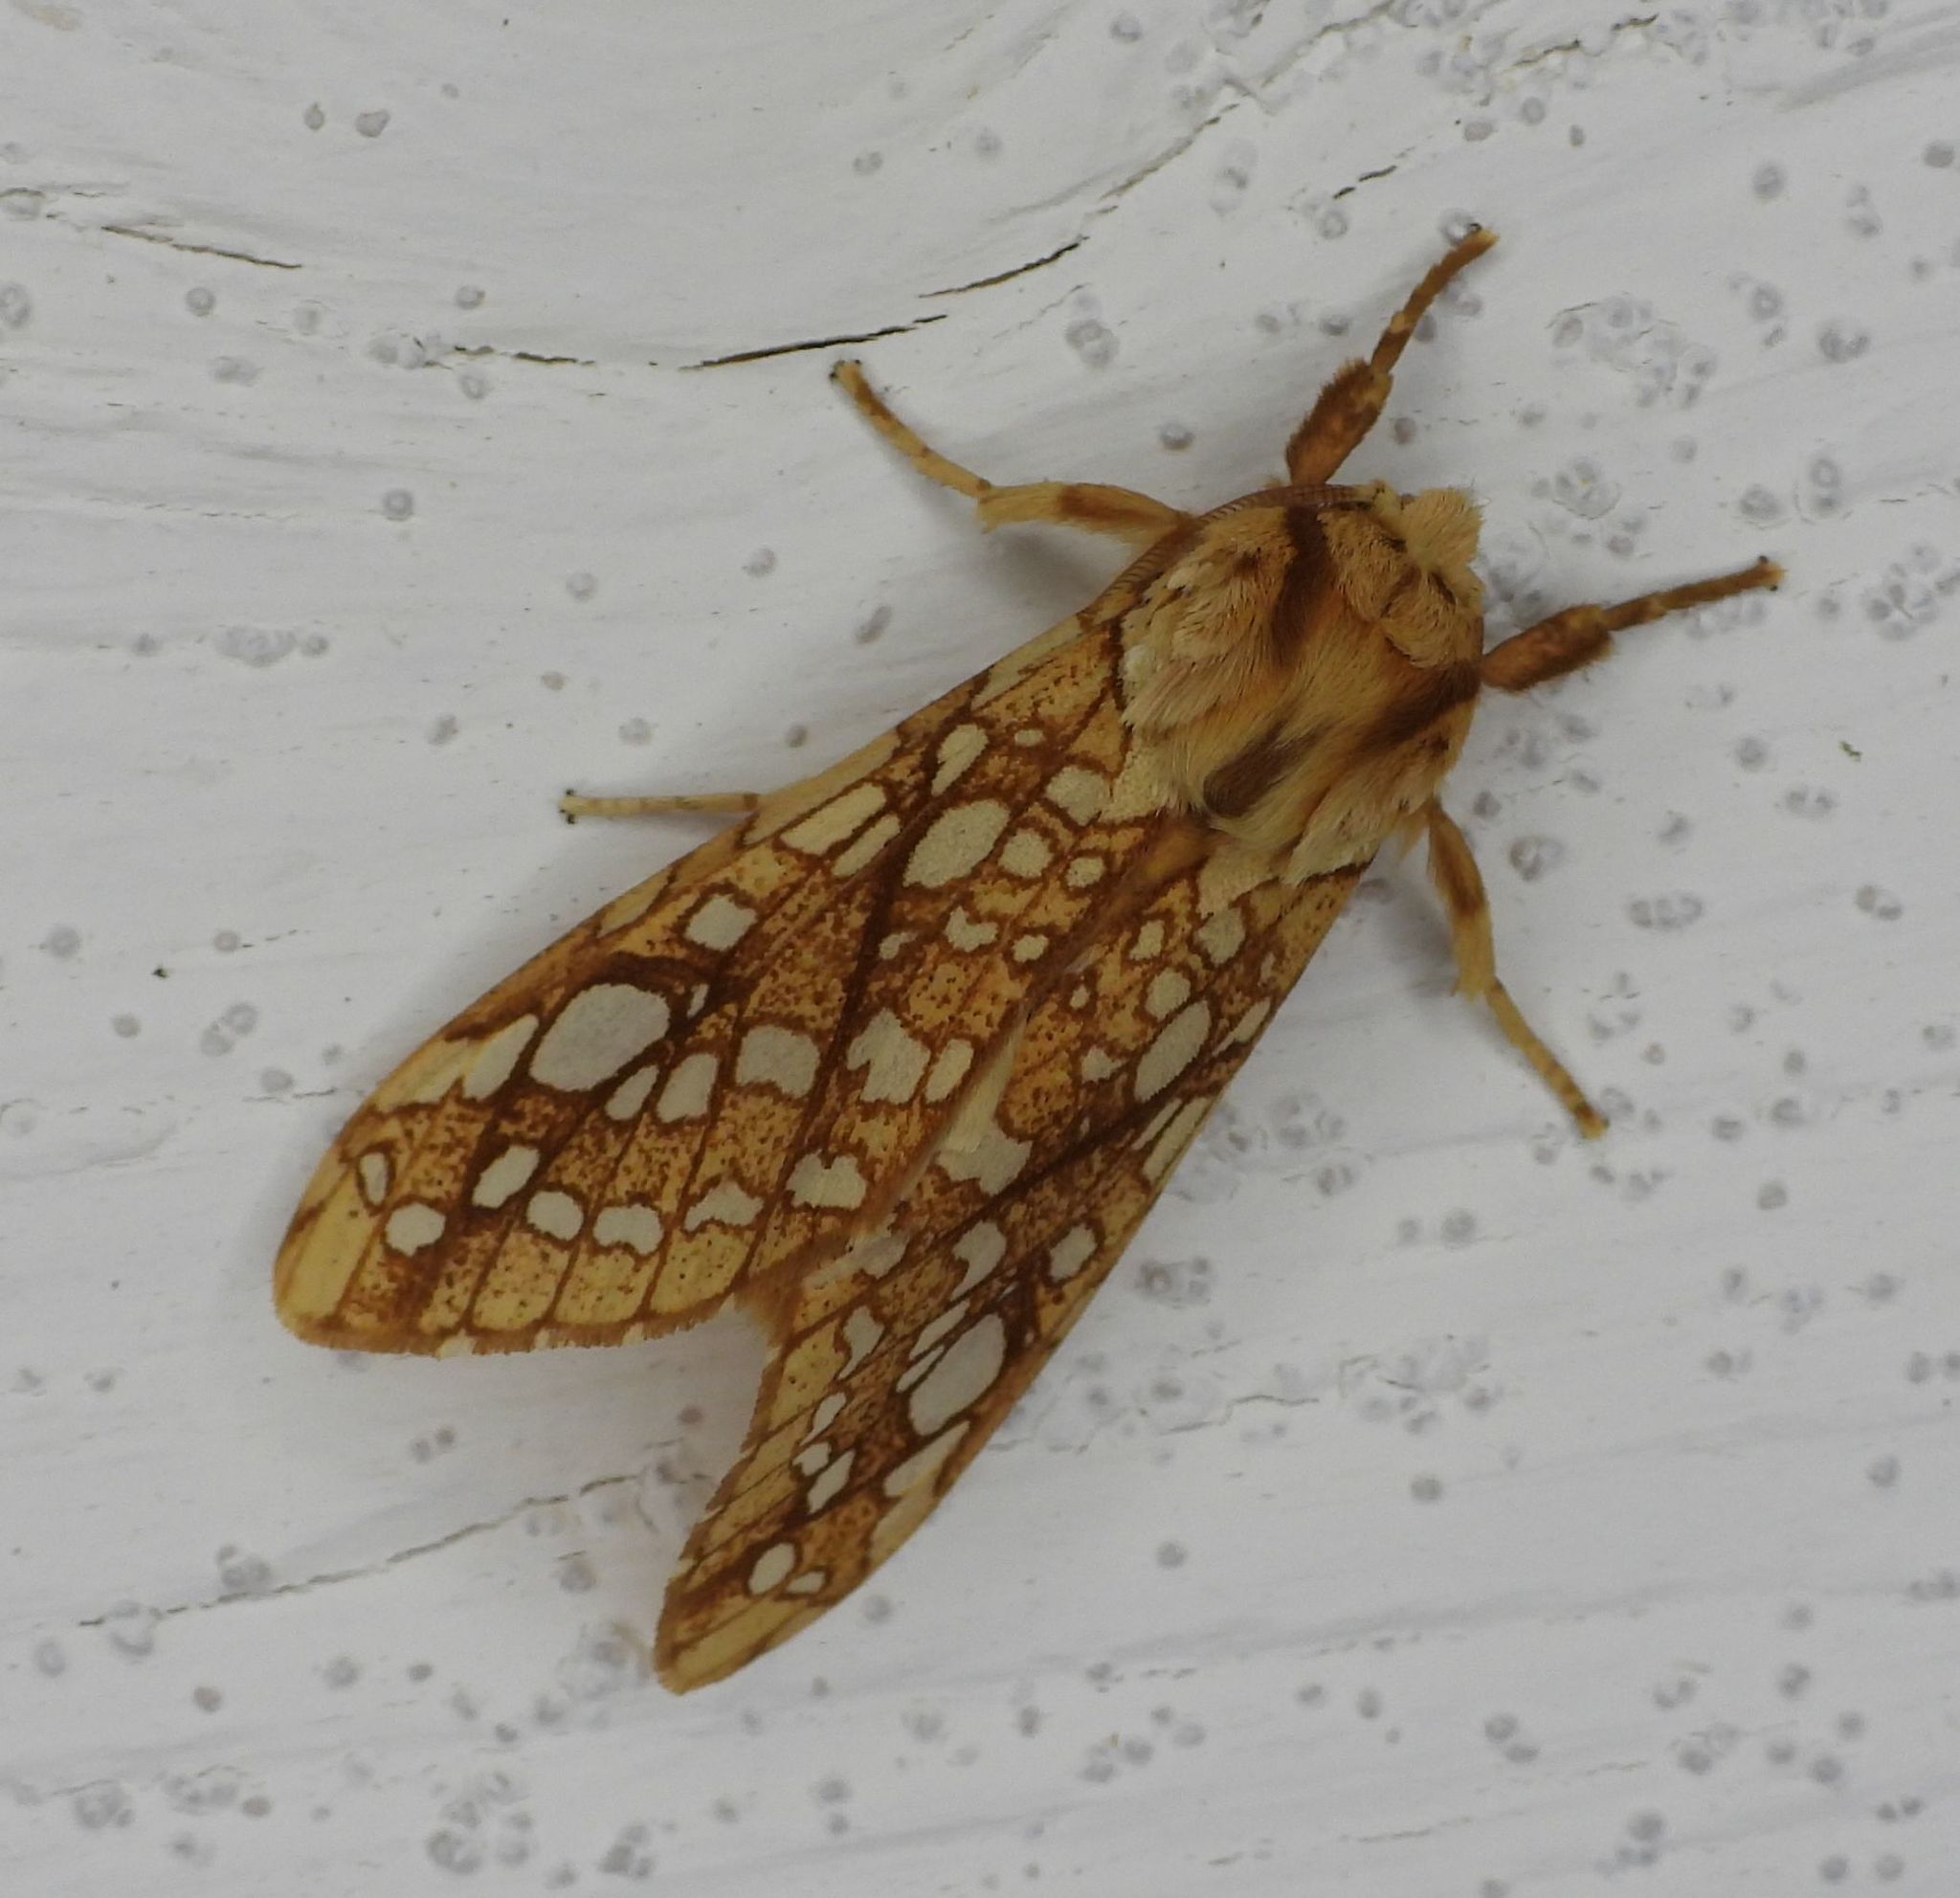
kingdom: Animalia
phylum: Arthropoda
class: Insecta
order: Lepidoptera
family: Erebidae
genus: Lophocampa
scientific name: Lophocampa caryae
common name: Hickory tussock moth
